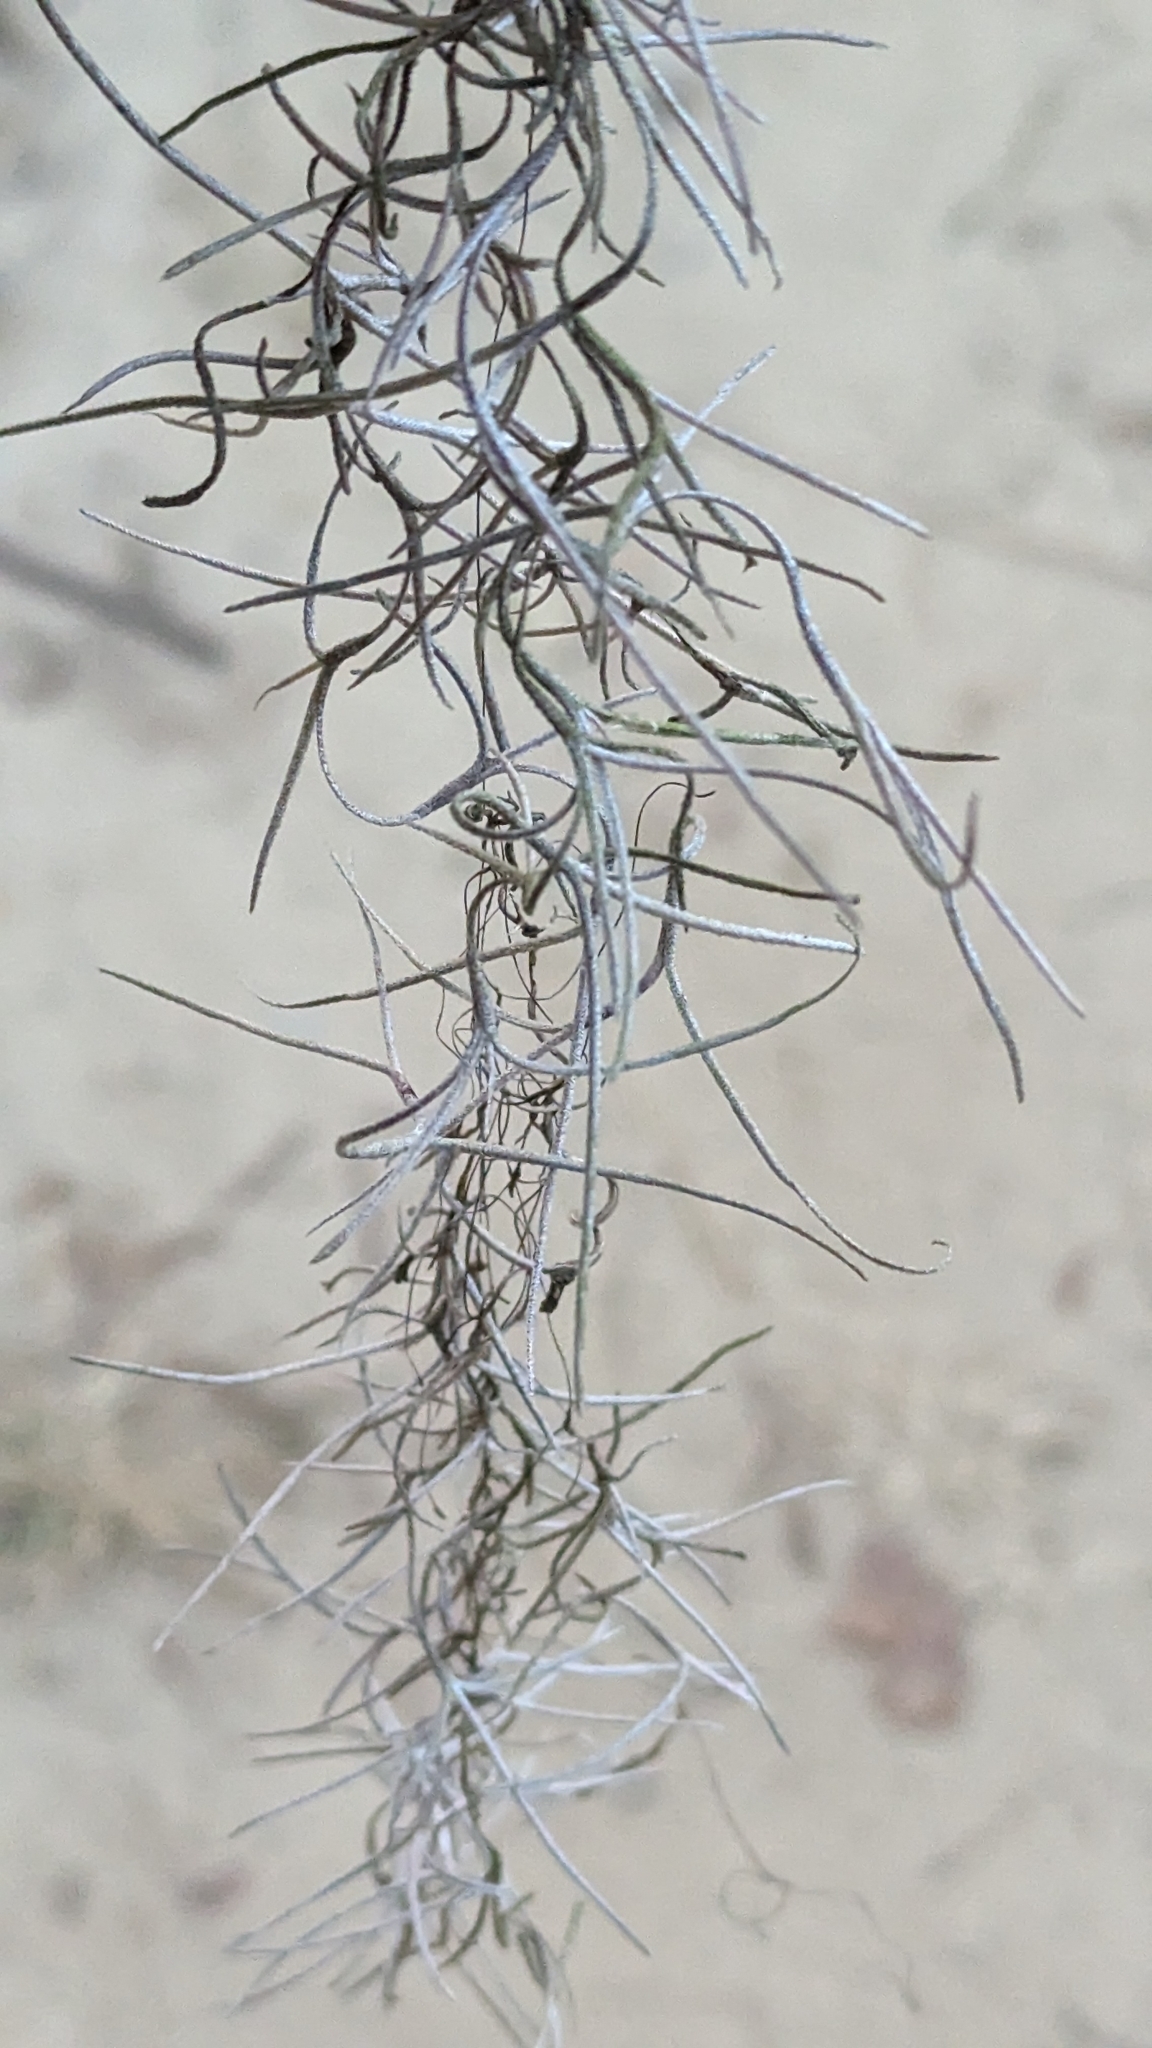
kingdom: Plantae
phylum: Tracheophyta
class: Liliopsida
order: Poales
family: Bromeliaceae
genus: Tillandsia
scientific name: Tillandsia usneoides
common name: Spanish moss
